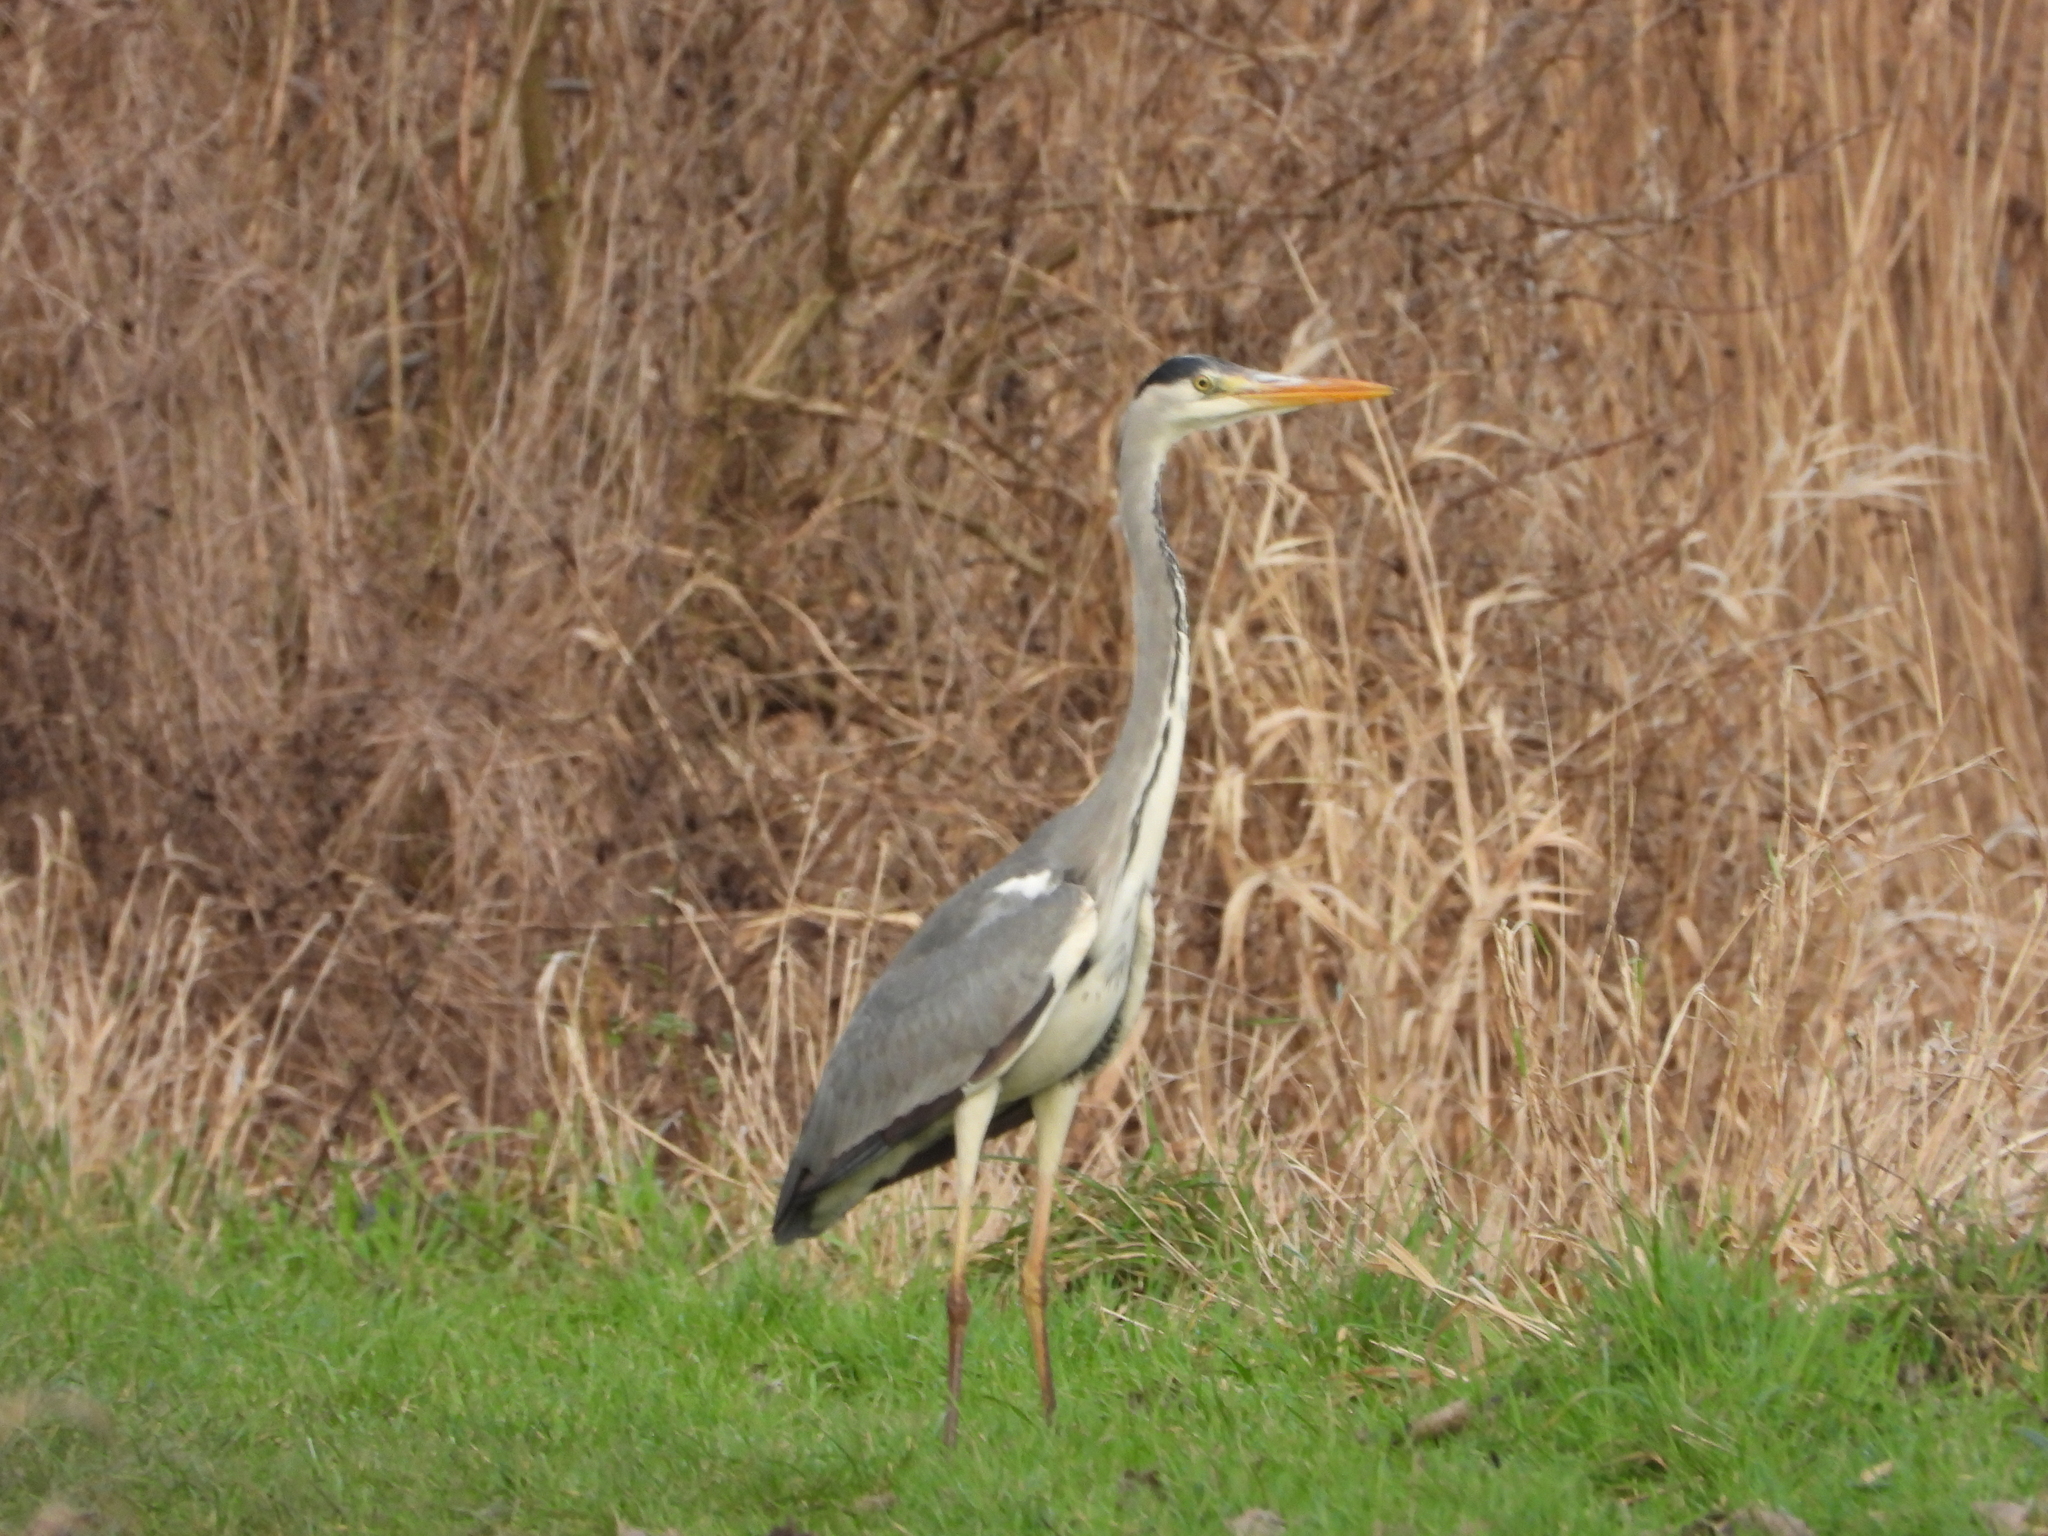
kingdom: Animalia
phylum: Chordata
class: Aves
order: Pelecaniformes
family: Ardeidae
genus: Ardea
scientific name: Ardea cinerea
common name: Grey heron
